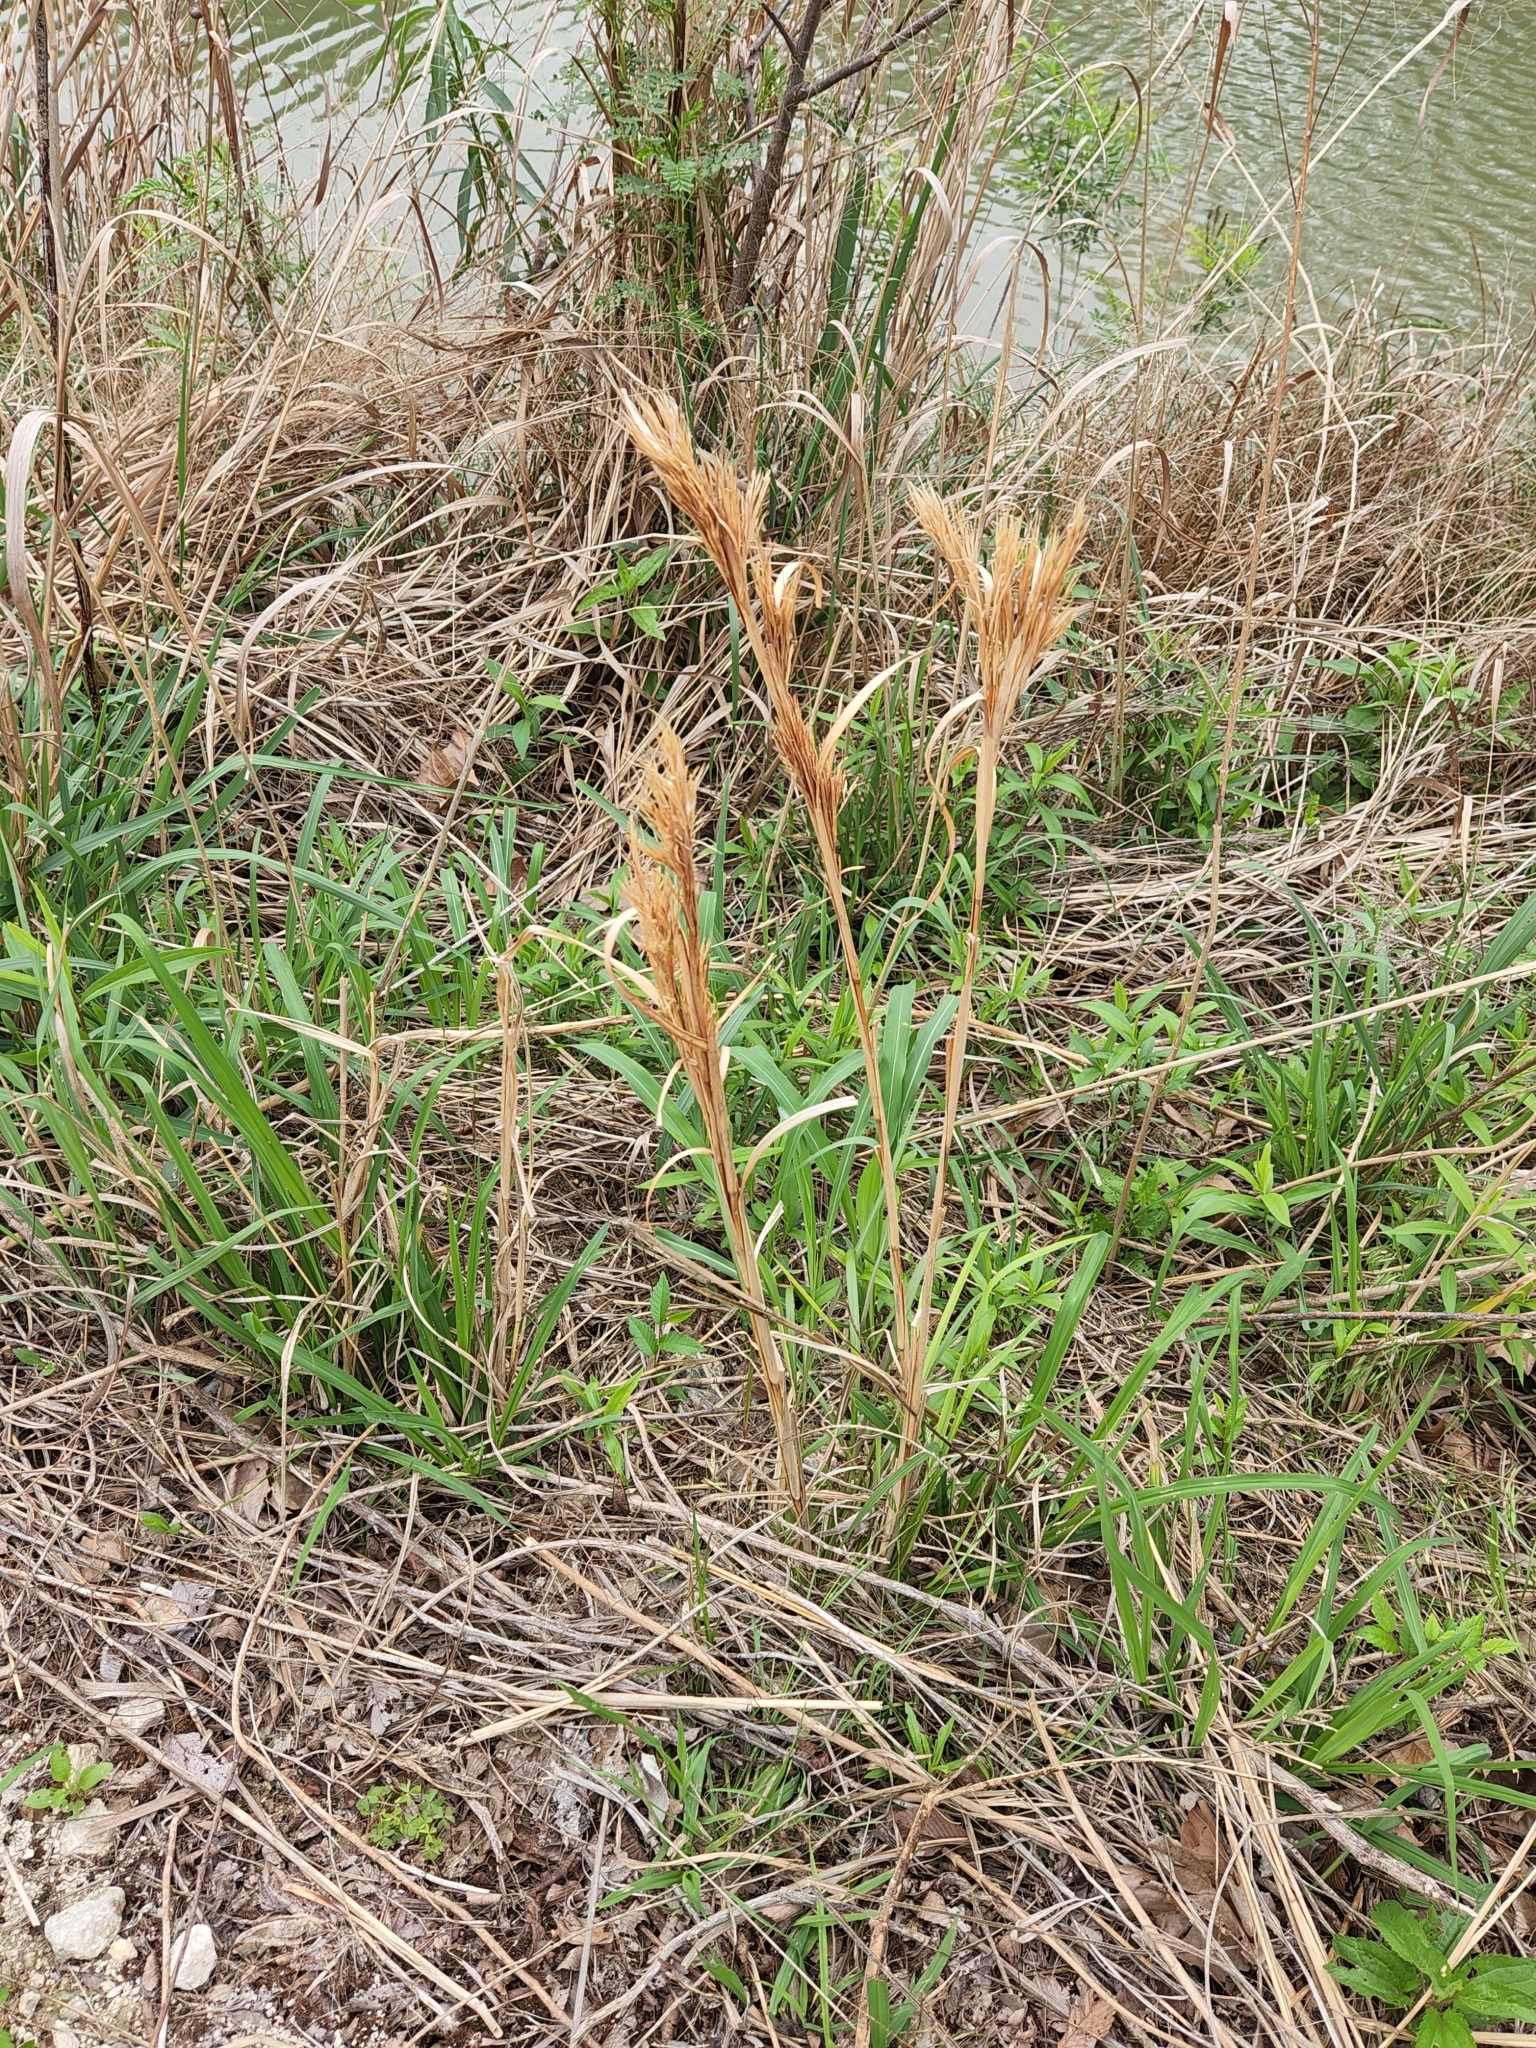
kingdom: Plantae
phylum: Tracheophyta
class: Liliopsida
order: Poales
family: Poaceae
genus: Andropogon
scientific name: Andropogon tenuispatheus
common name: Bushy bluestem
